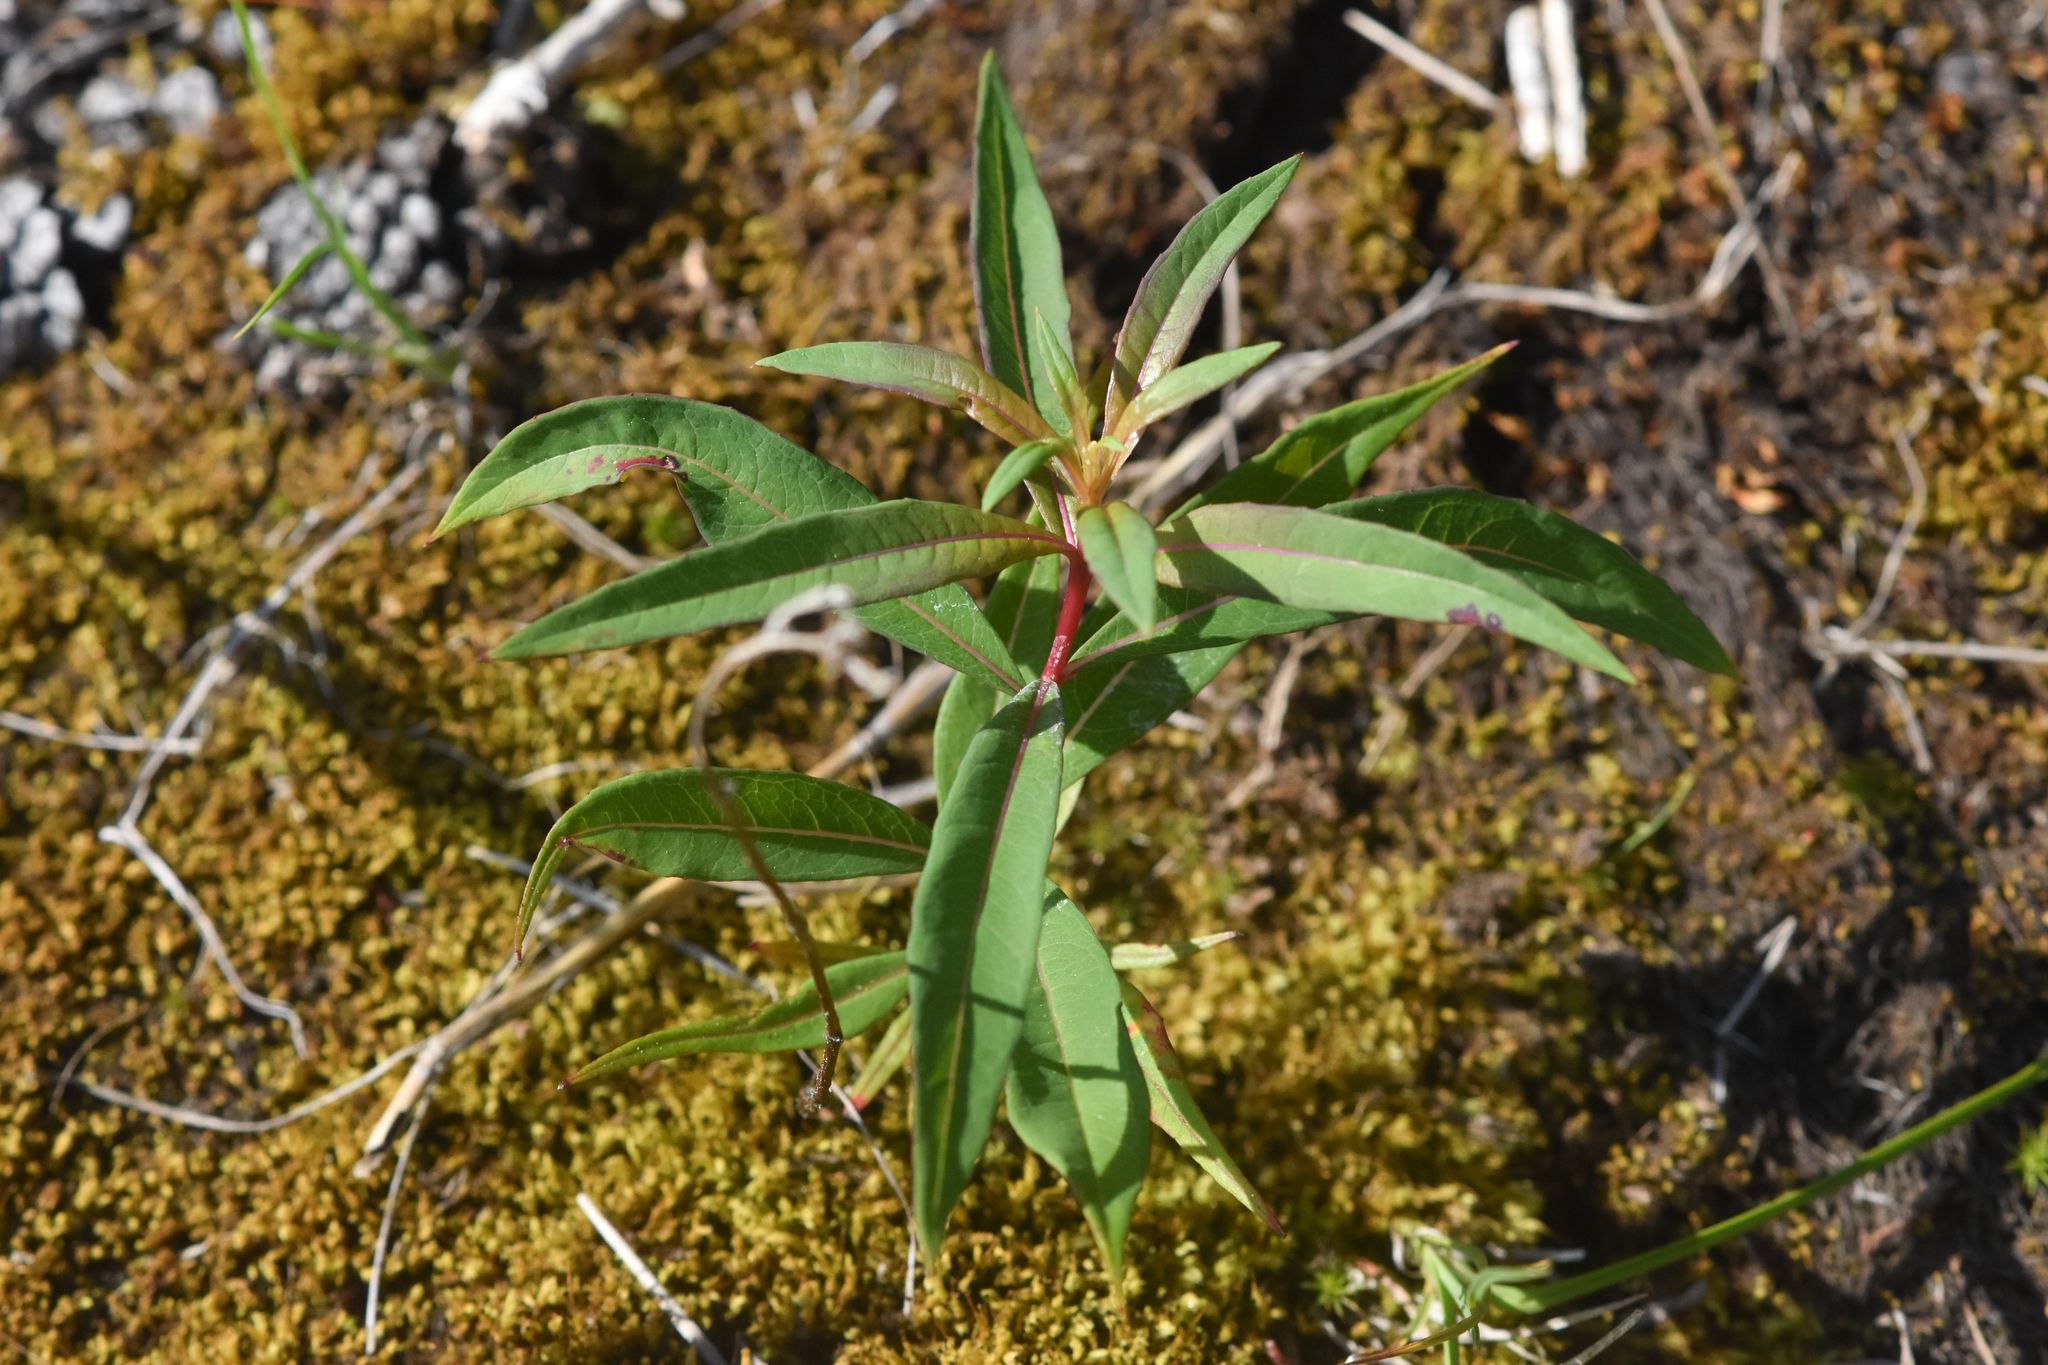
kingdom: Plantae
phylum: Tracheophyta
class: Magnoliopsida
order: Myrtales
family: Onagraceae
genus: Chamaenerion
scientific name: Chamaenerion angustifolium
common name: Fireweed
